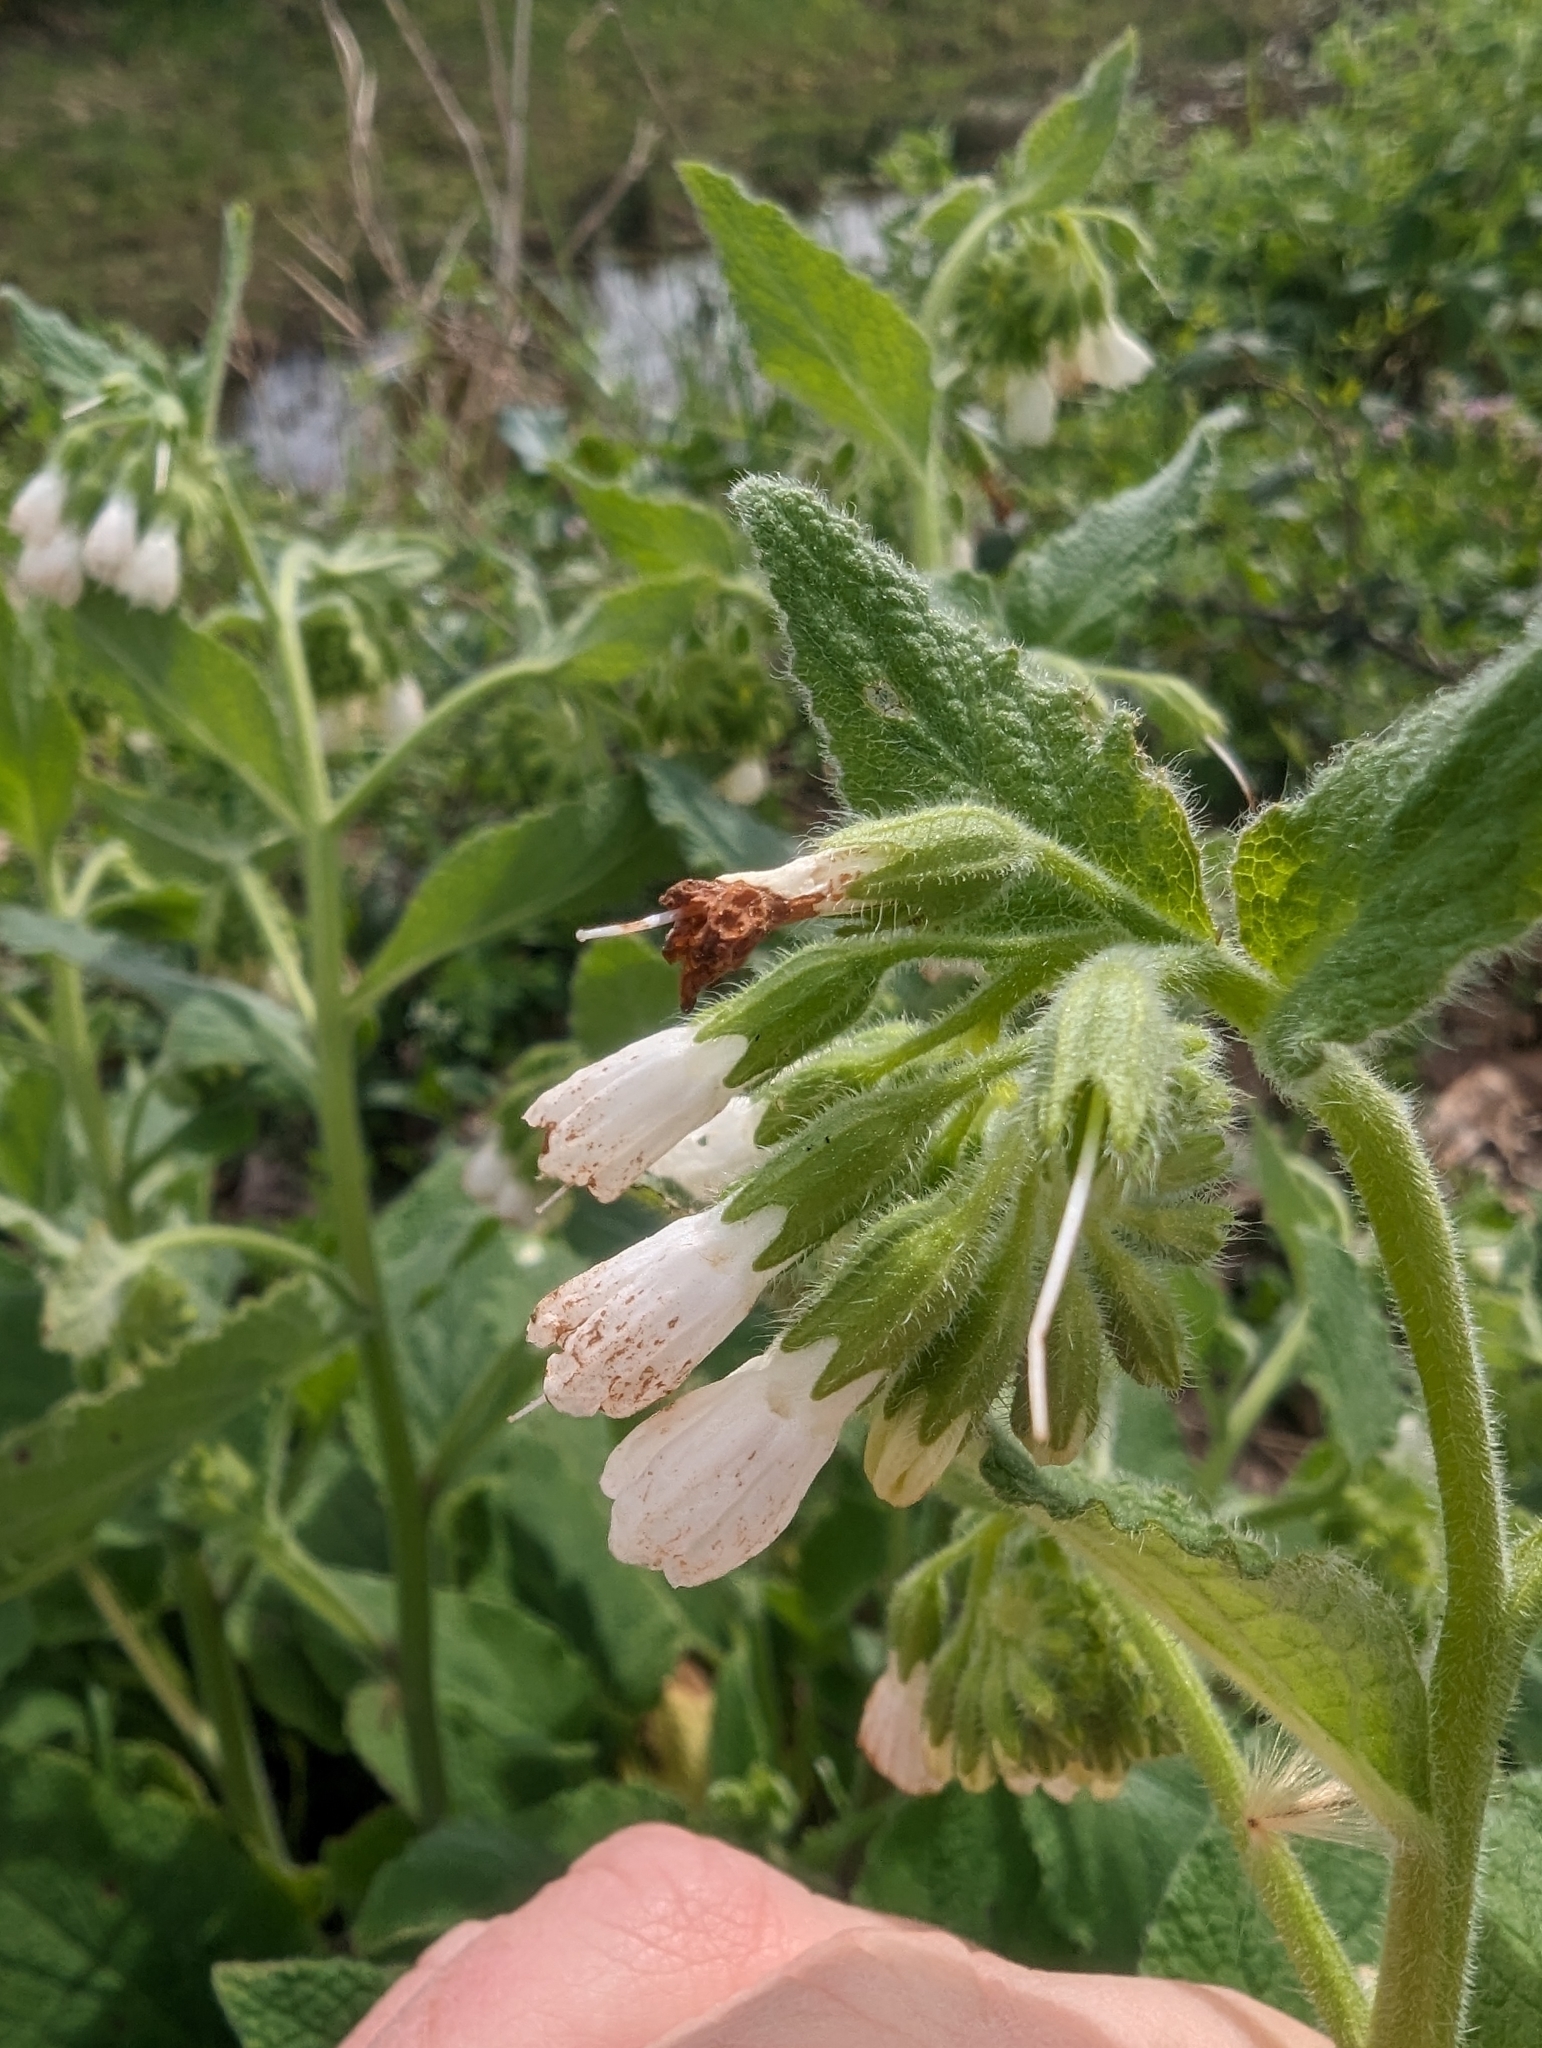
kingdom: Plantae
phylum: Tracheophyta
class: Magnoliopsida
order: Boraginales
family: Boraginaceae
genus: Symphytum
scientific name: Symphytum orientale
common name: White comfrey
